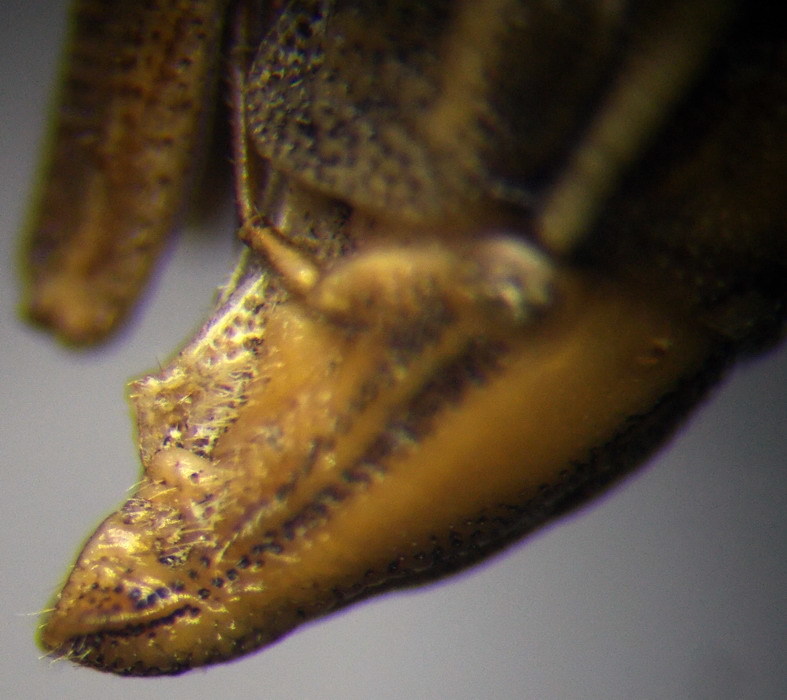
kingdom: Animalia
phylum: Arthropoda
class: Insecta
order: Hemiptera
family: Pentatomidae
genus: Aelia
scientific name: Aelia furcula
